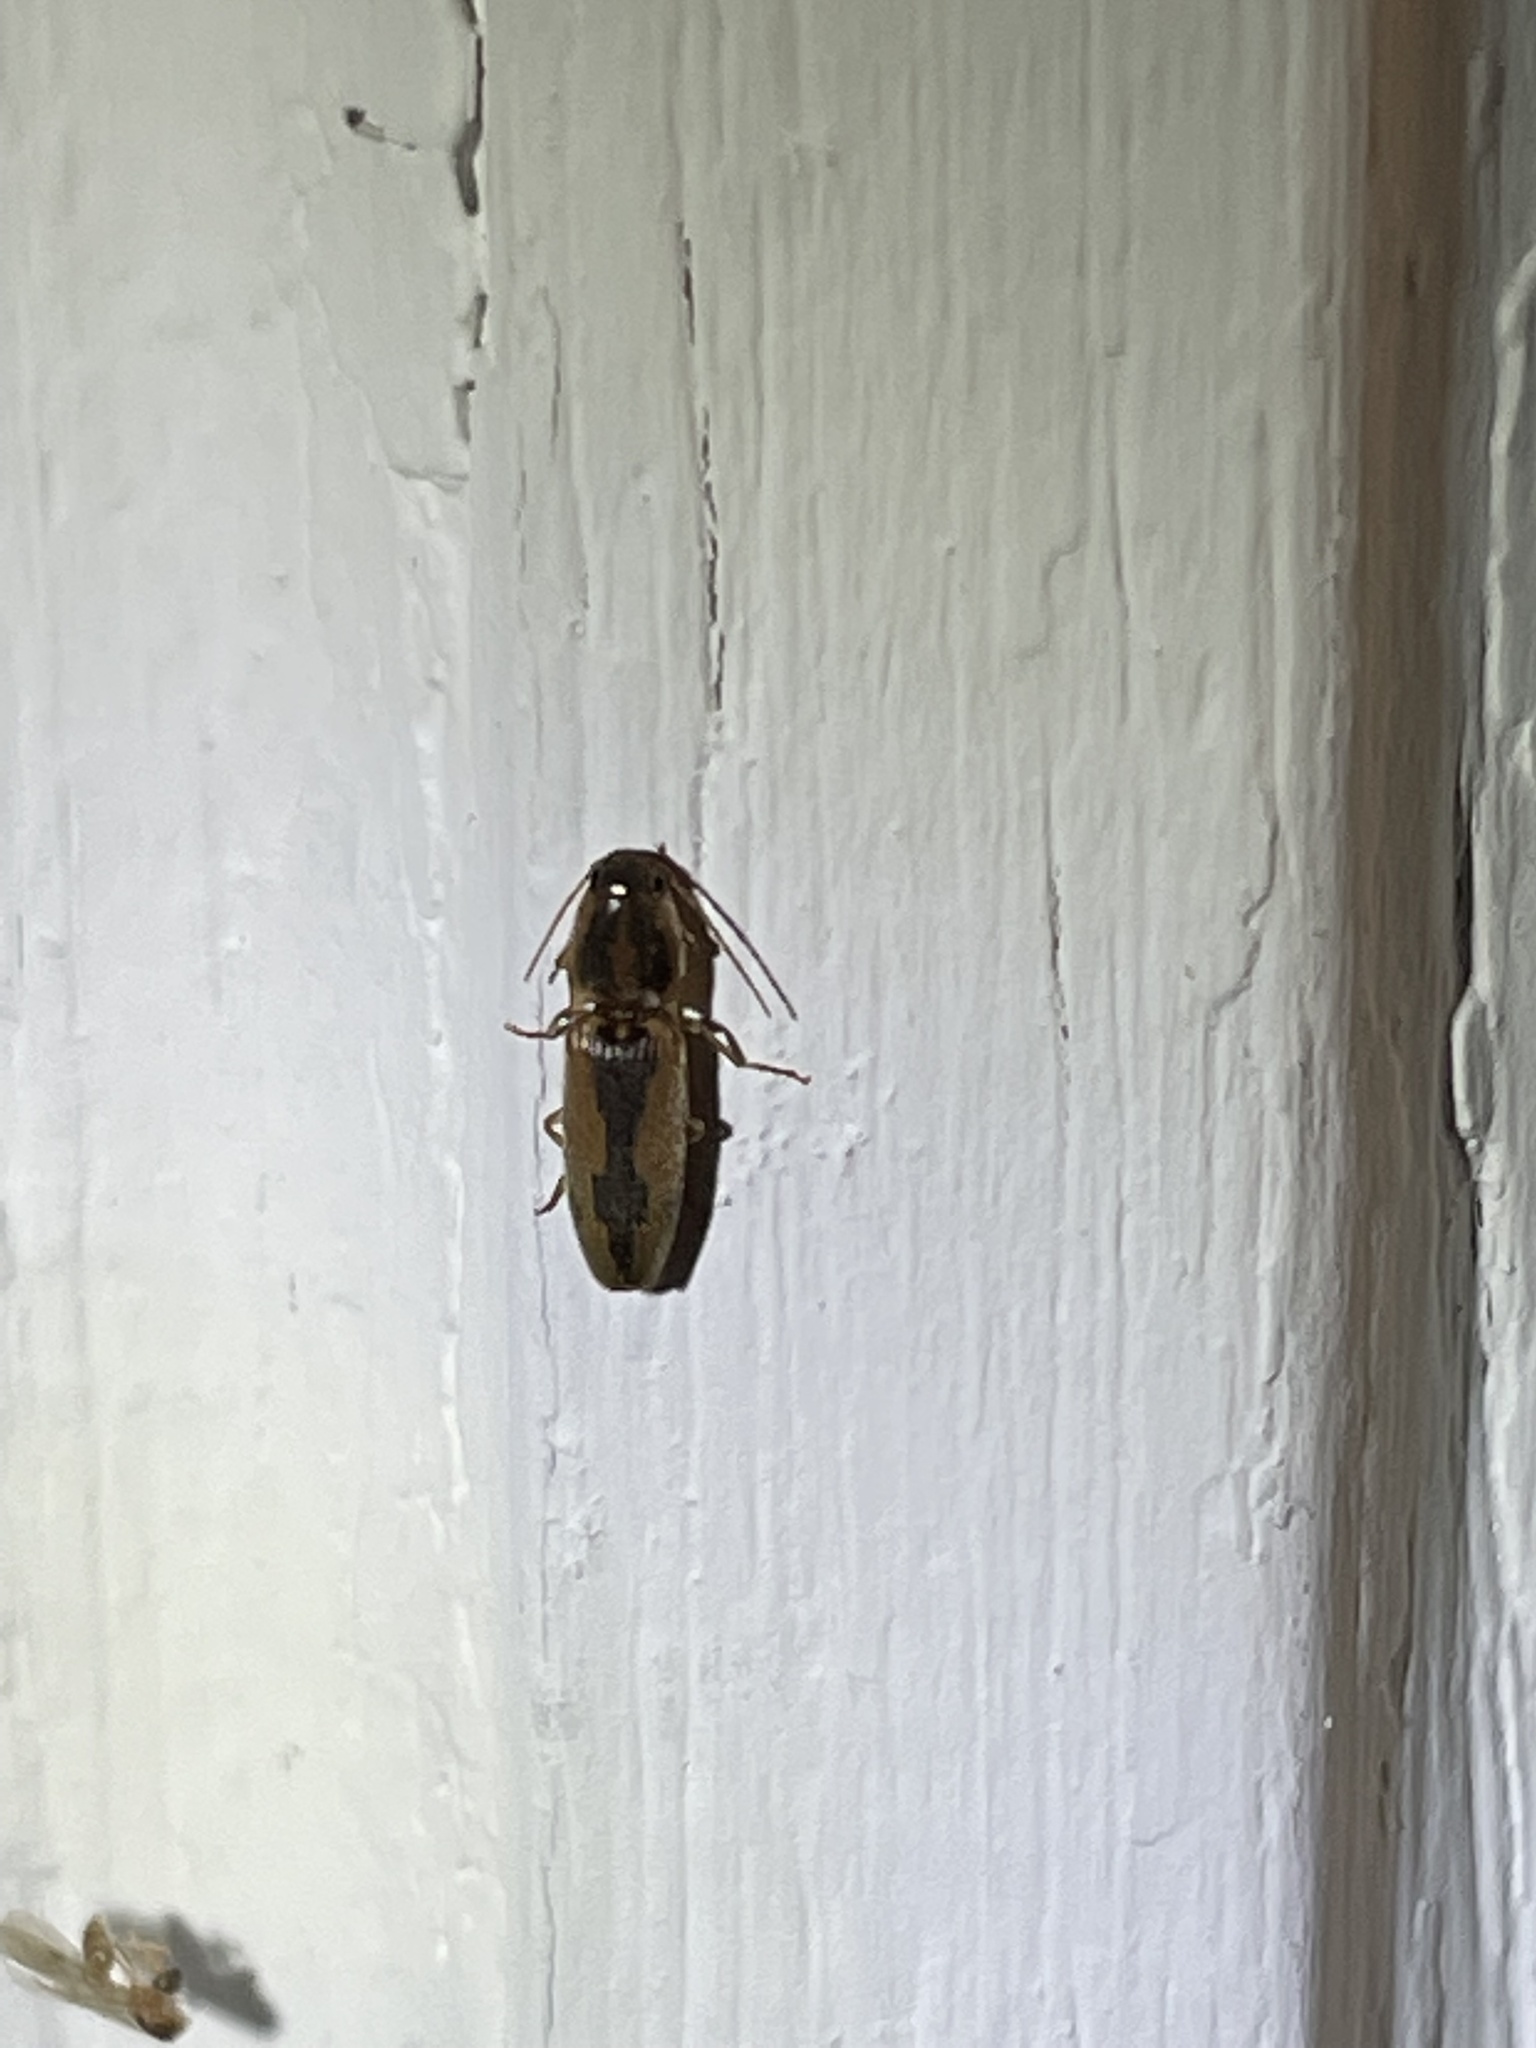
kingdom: Animalia
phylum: Arthropoda
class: Insecta
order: Coleoptera
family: Elateridae
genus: Monocrepidius
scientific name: Monocrepidius
